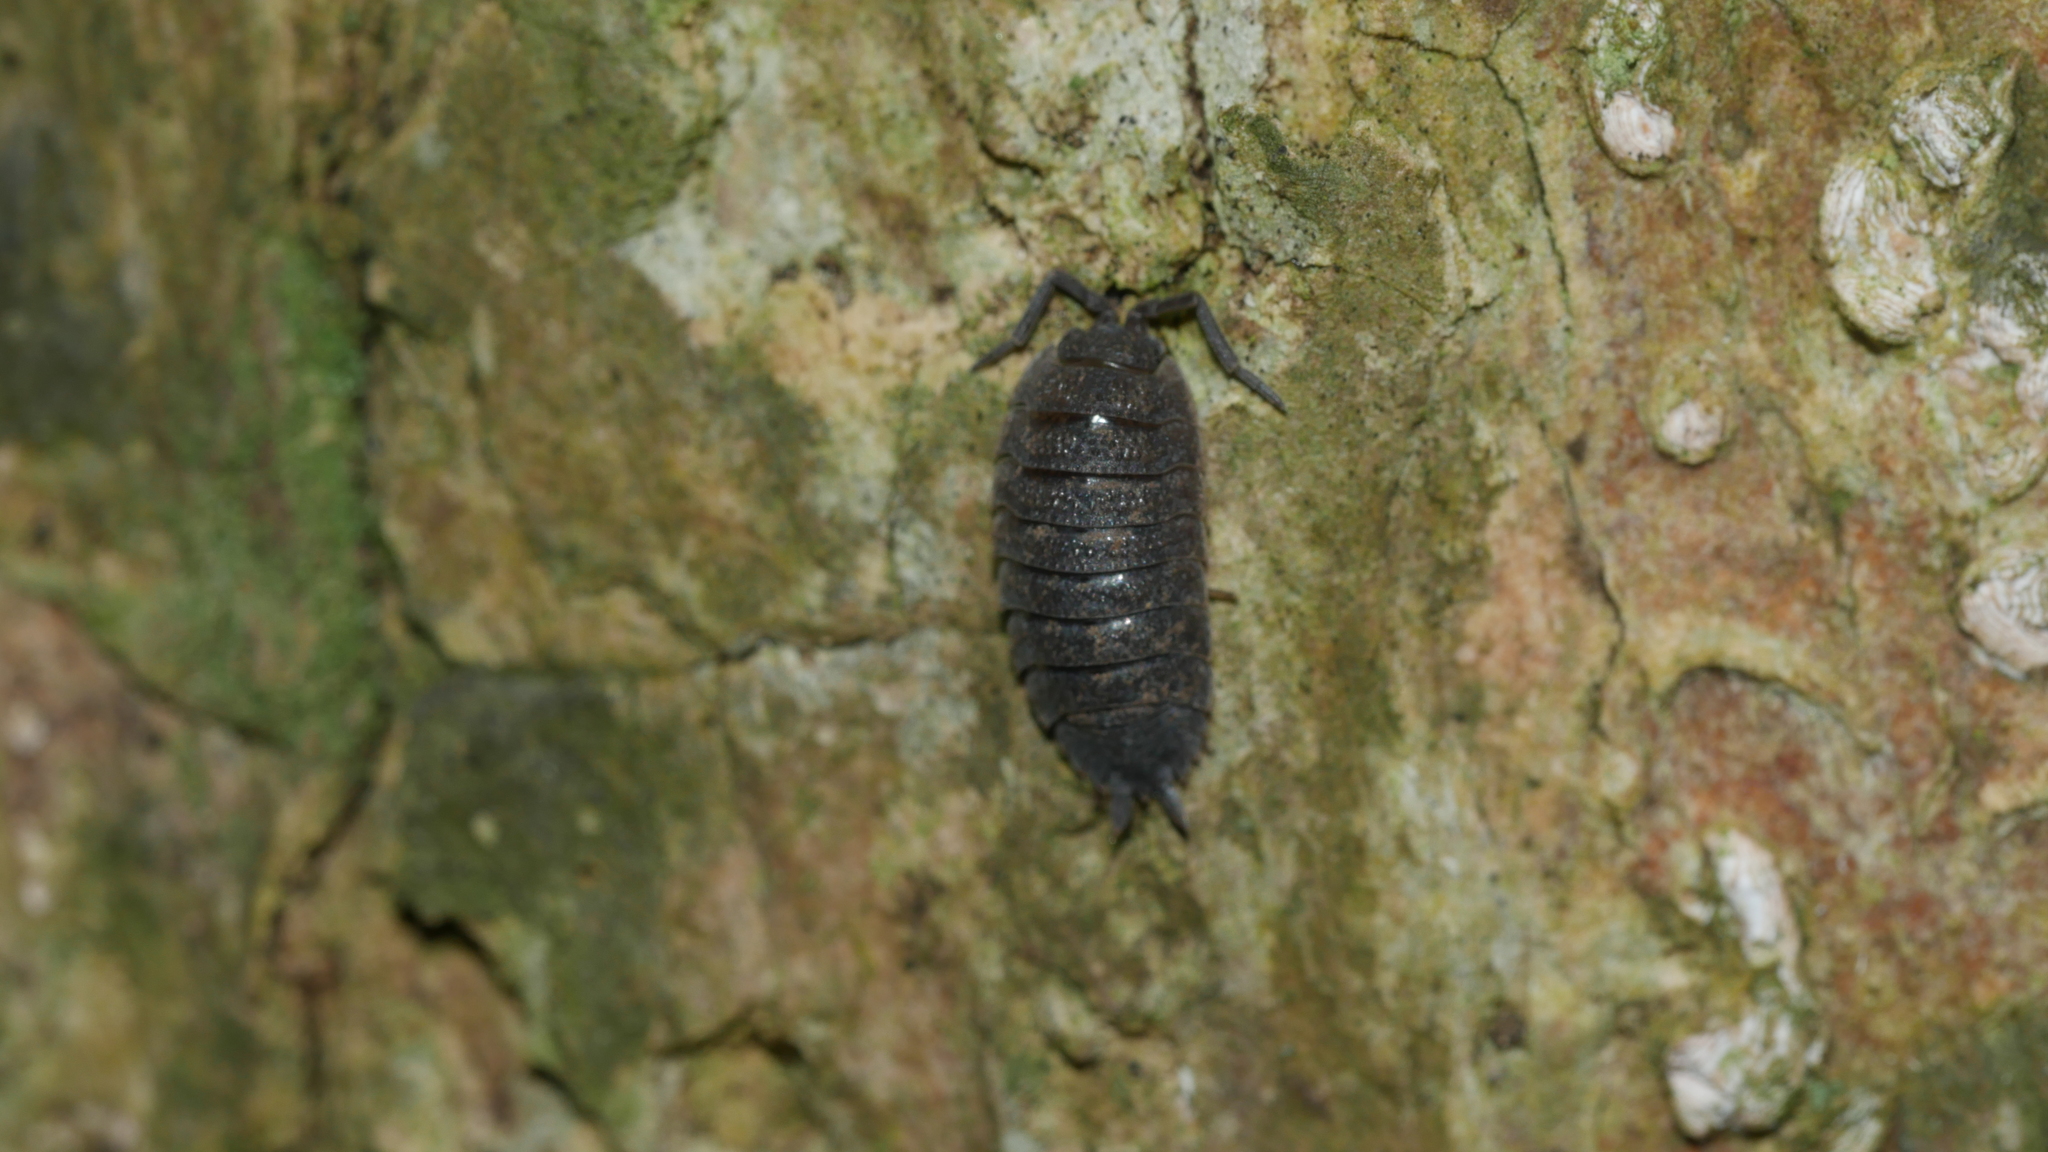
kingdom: Animalia
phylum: Arthropoda
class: Malacostraca
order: Isopoda
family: Porcellionidae
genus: Porcellio
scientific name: Porcellio scaber
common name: Common rough woodlouse
